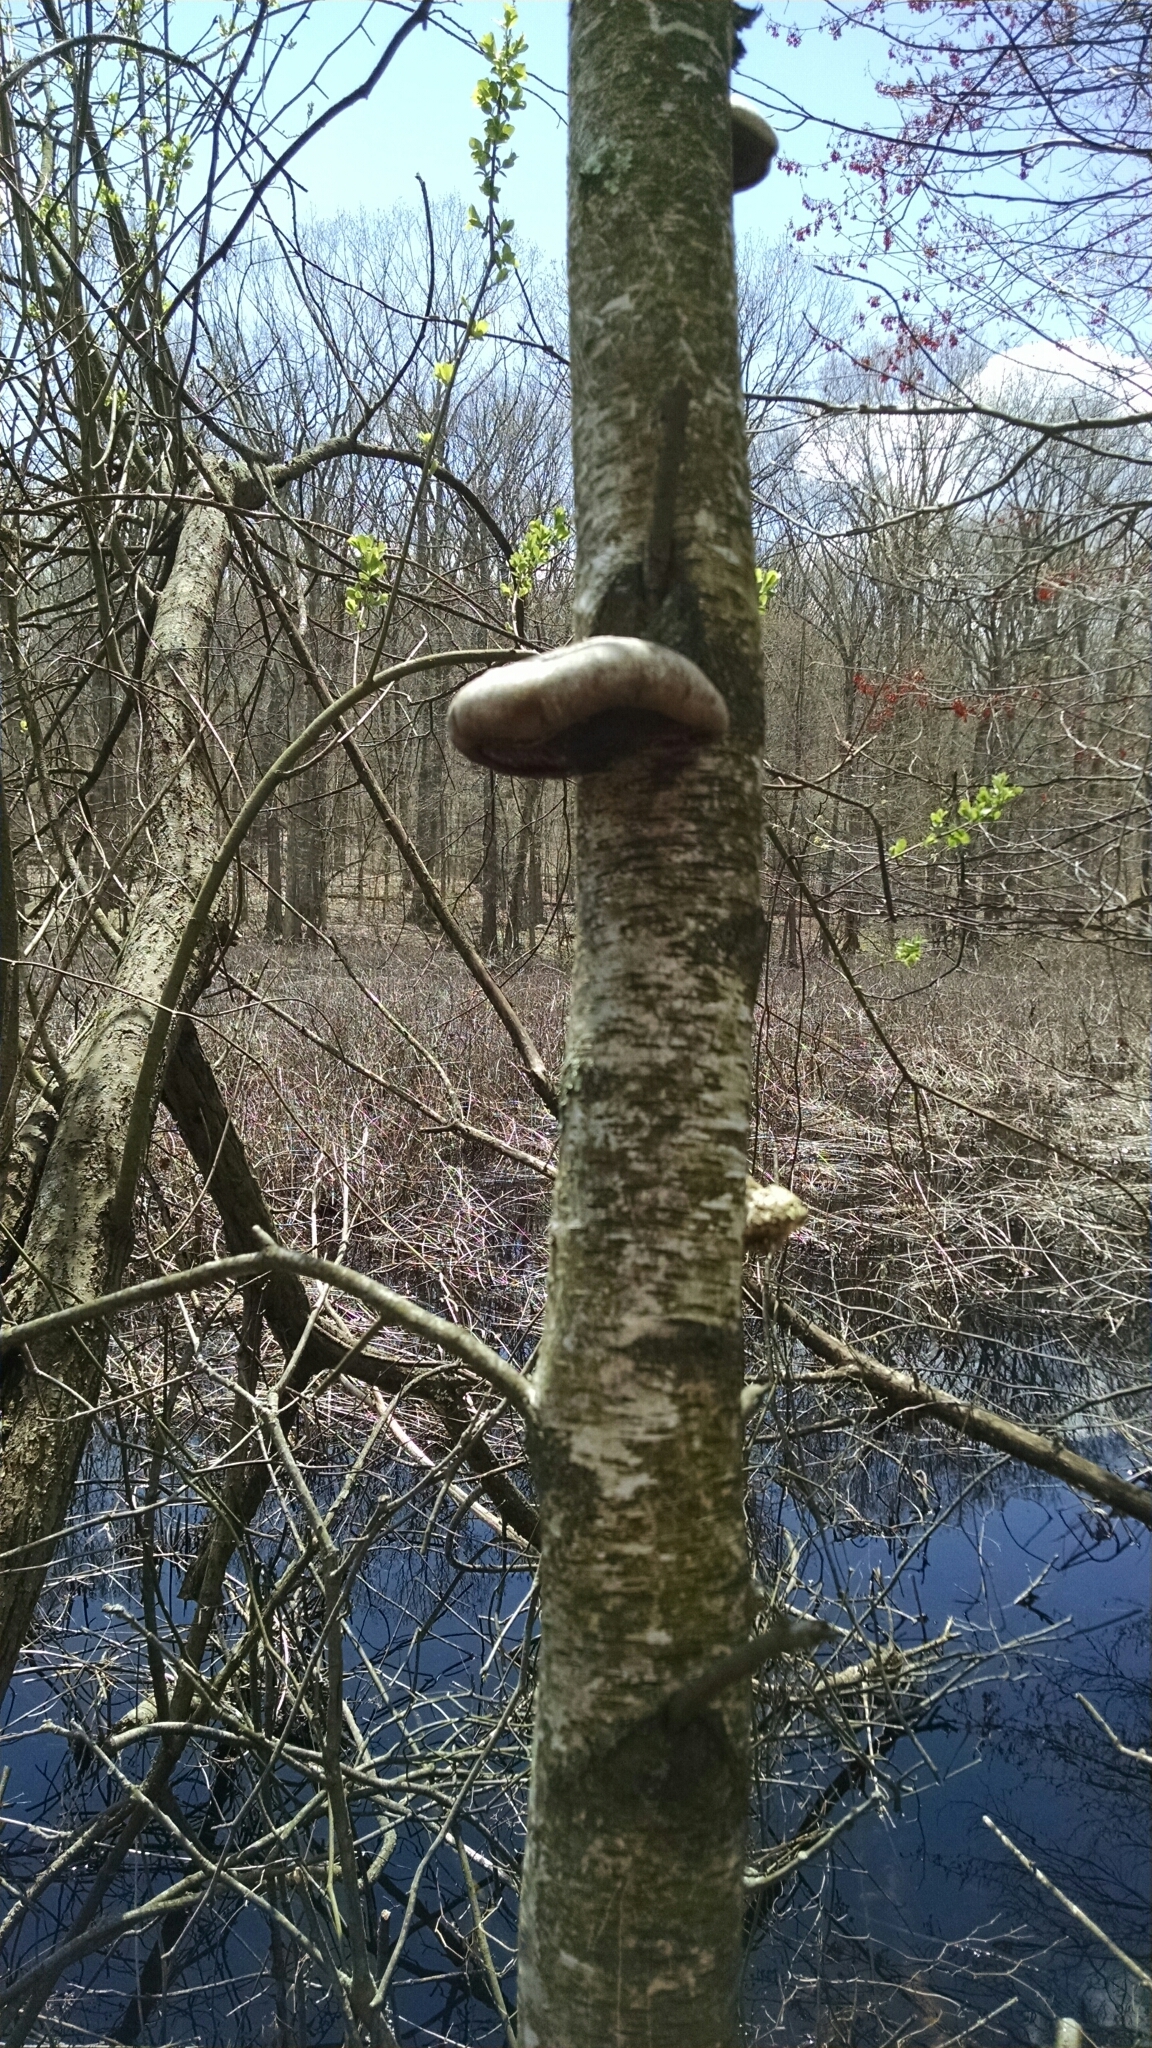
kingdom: Fungi
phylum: Basidiomycota
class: Agaricomycetes
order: Polyporales
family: Fomitopsidaceae
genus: Fomitopsis
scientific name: Fomitopsis betulina
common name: Birch polypore
